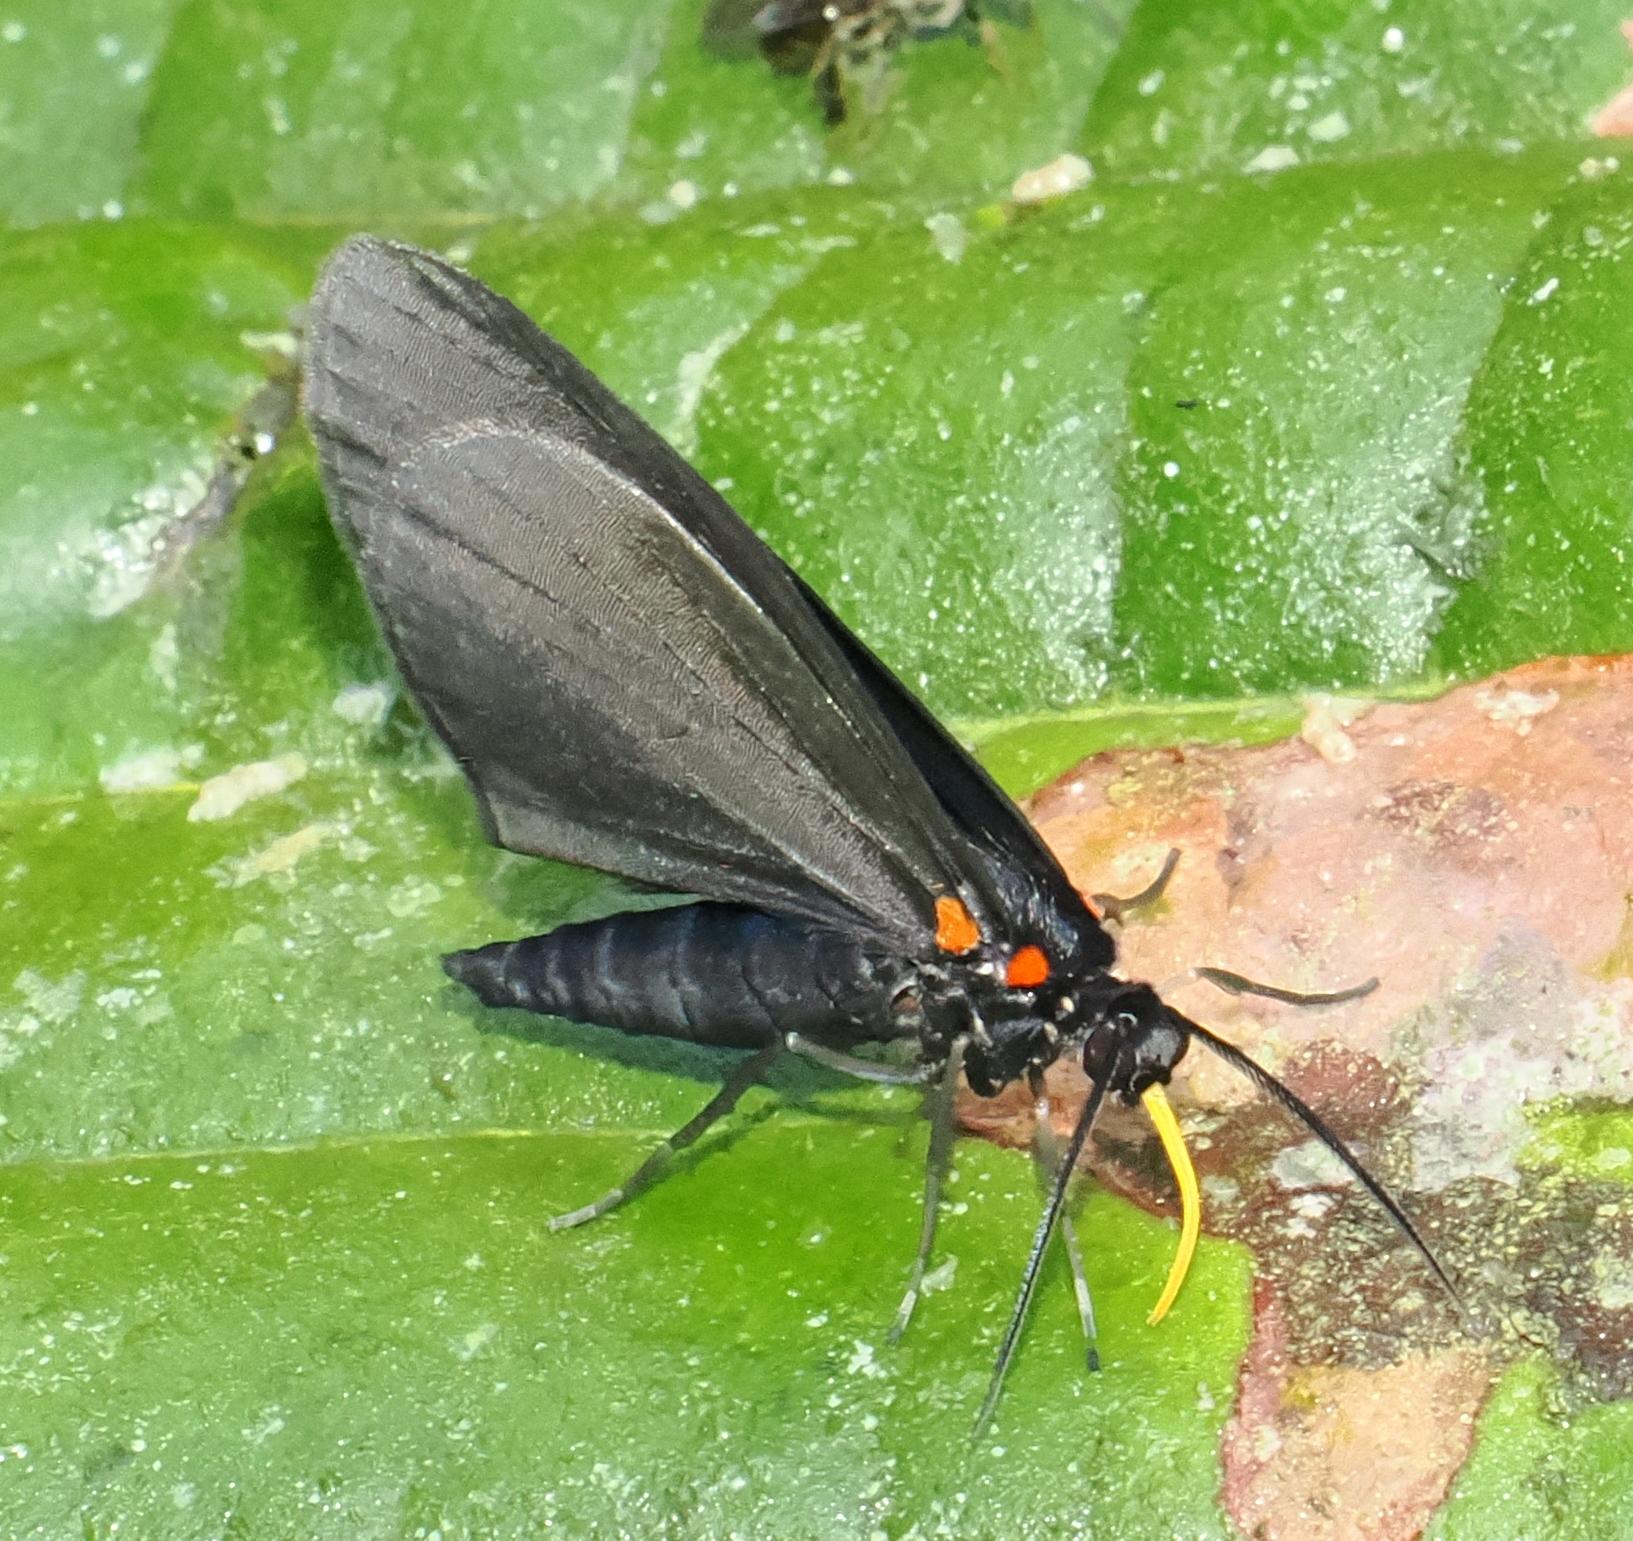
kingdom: Animalia
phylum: Arthropoda
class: Insecta
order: Lepidoptera
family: Geometridae
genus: Sangalopsis
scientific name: Sangalopsis ficifera
